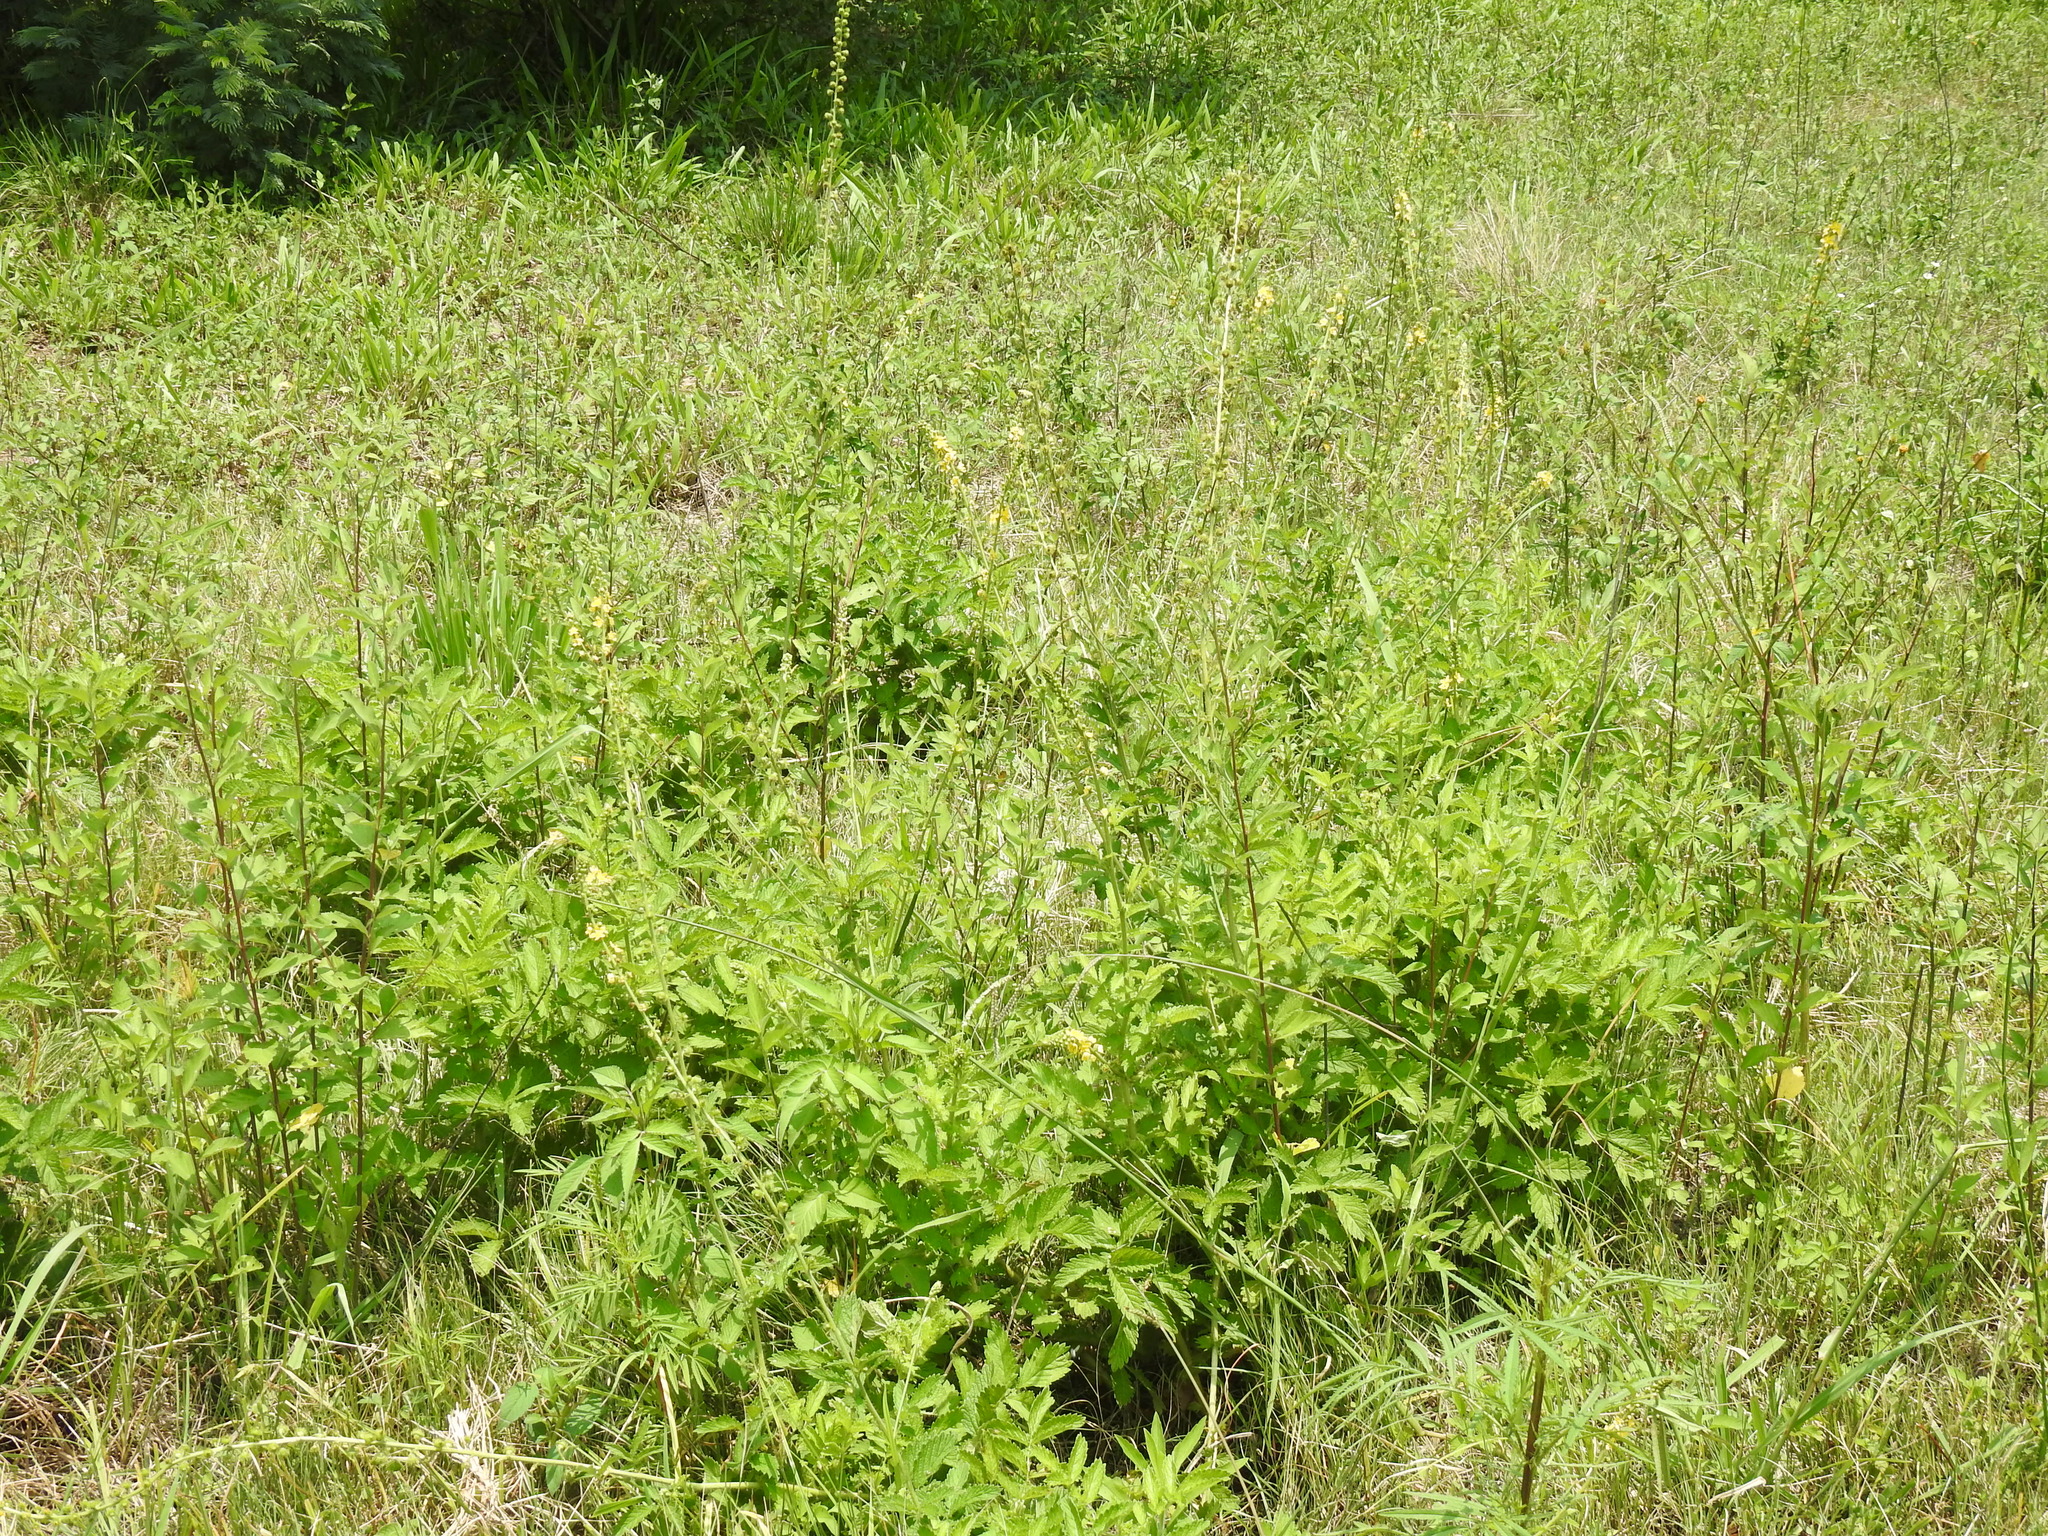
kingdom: Plantae
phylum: Tracheophyta
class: Magnoliopsida
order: Rosales
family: Rosaceae
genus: Agrimonia
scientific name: Agrimonia bracteata
